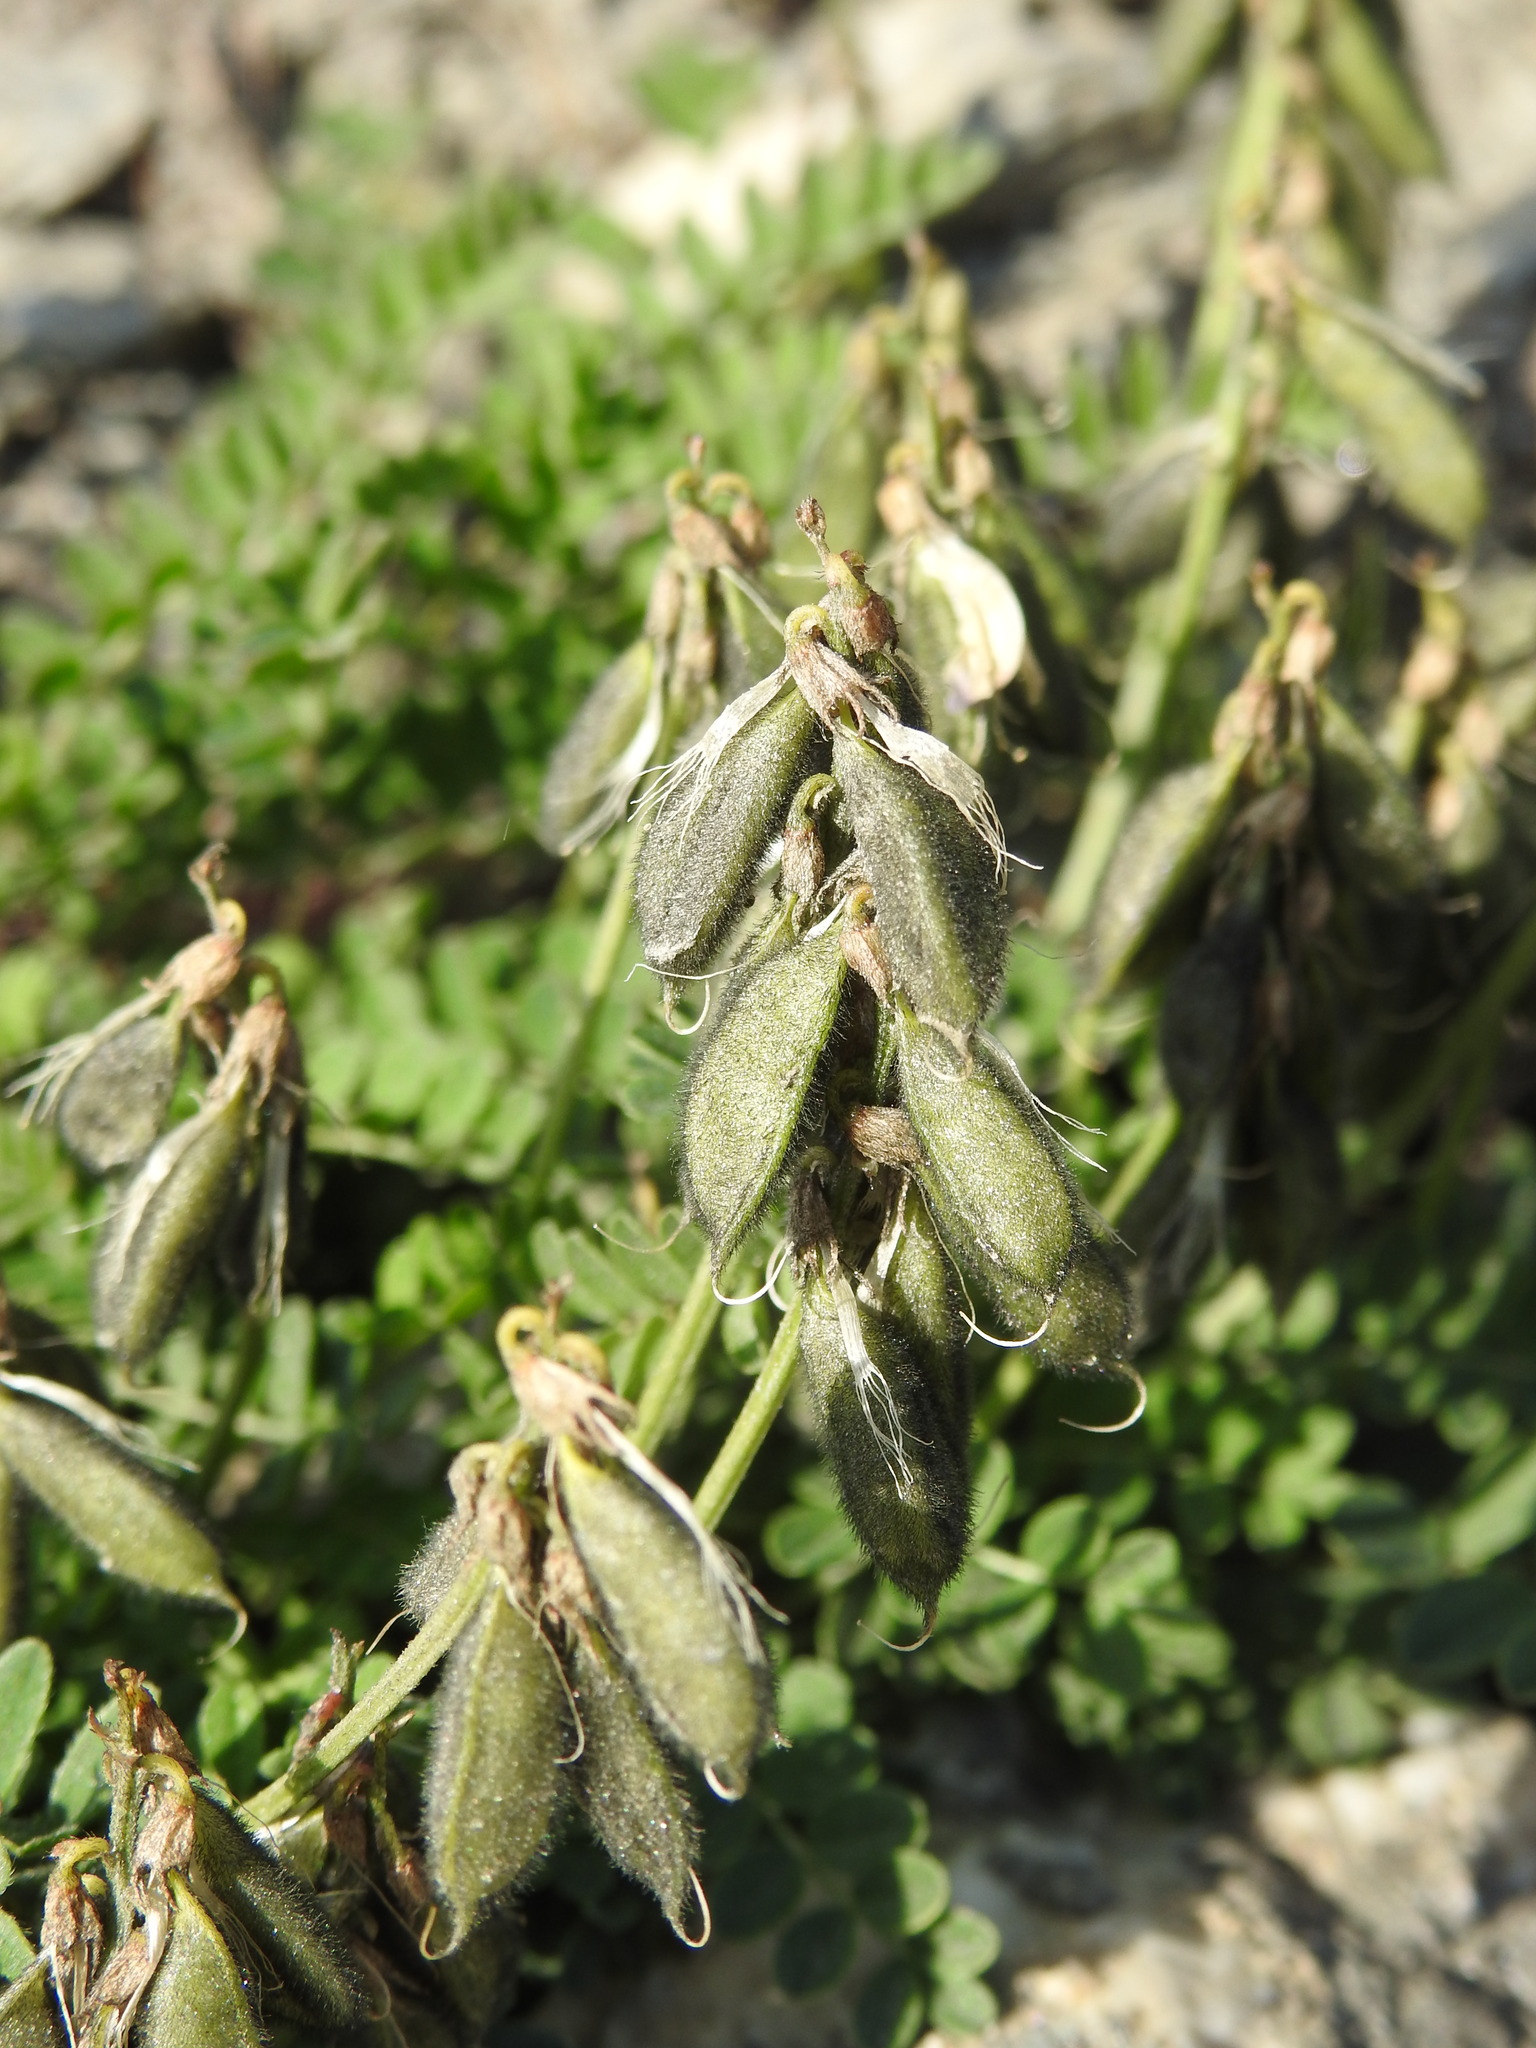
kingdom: Plantae
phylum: Tracheophyta
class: Magnoliopsida
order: Fabales
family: Fabaceae
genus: Astragalus
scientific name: Astragalus alpinus
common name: Alpine milk-vetch
